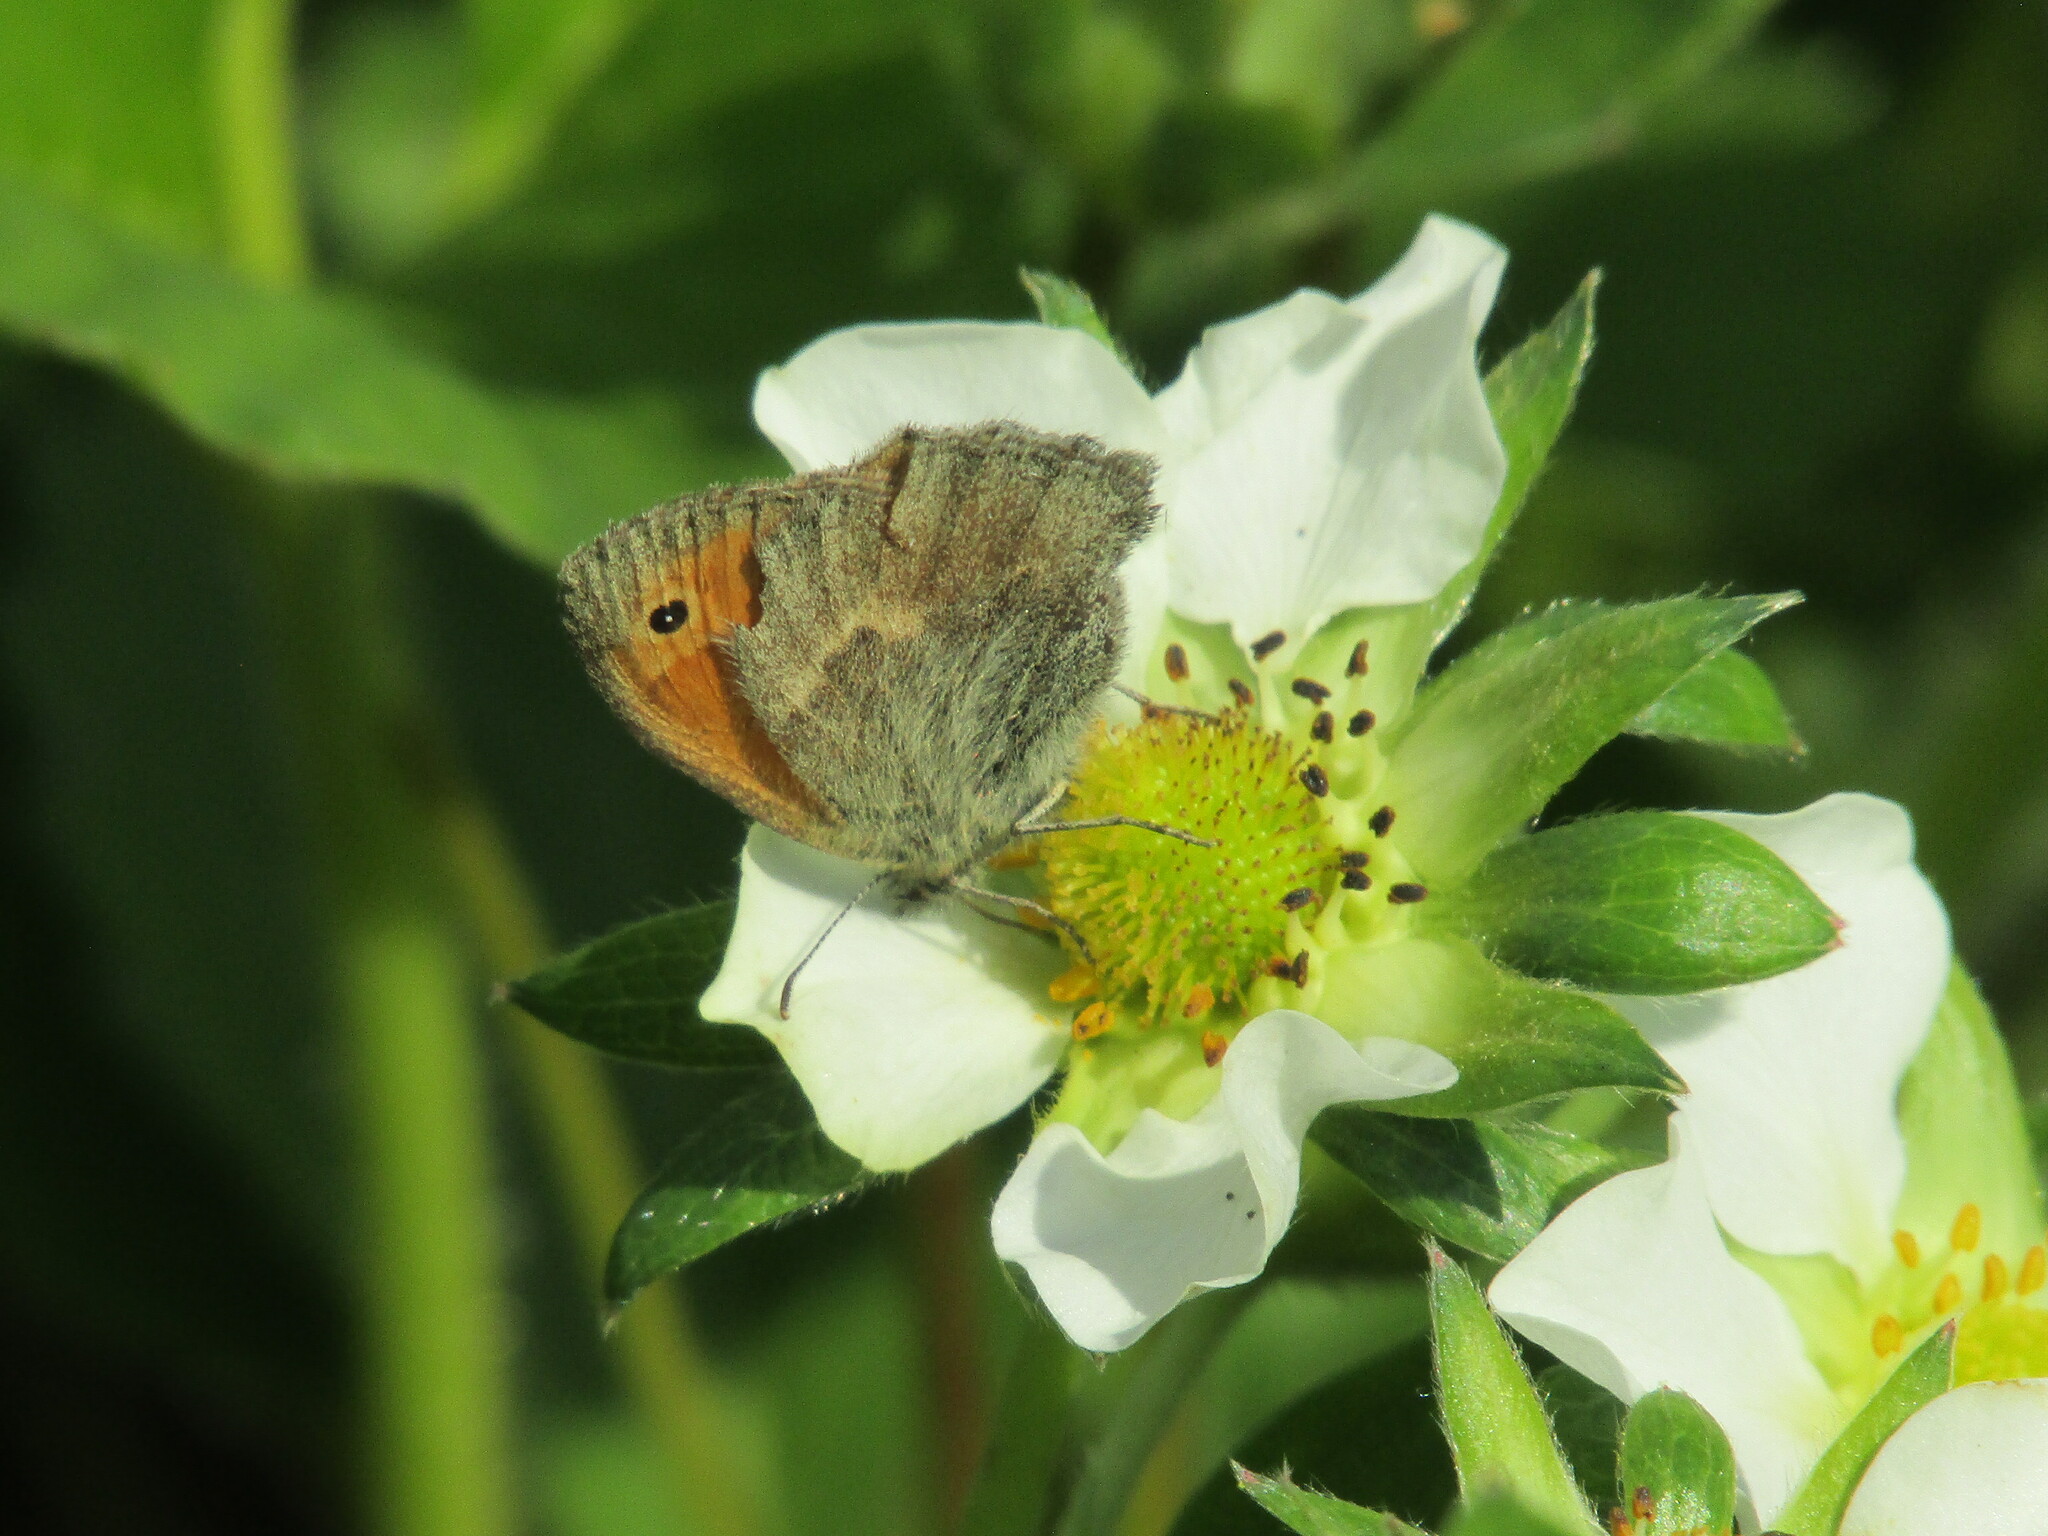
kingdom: Animalia
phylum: Arthropoda
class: Insecta
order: Lepidoptera
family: Nymphalidae
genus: Coenonympha
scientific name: Coenonympha pamphilus
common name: Small heath
